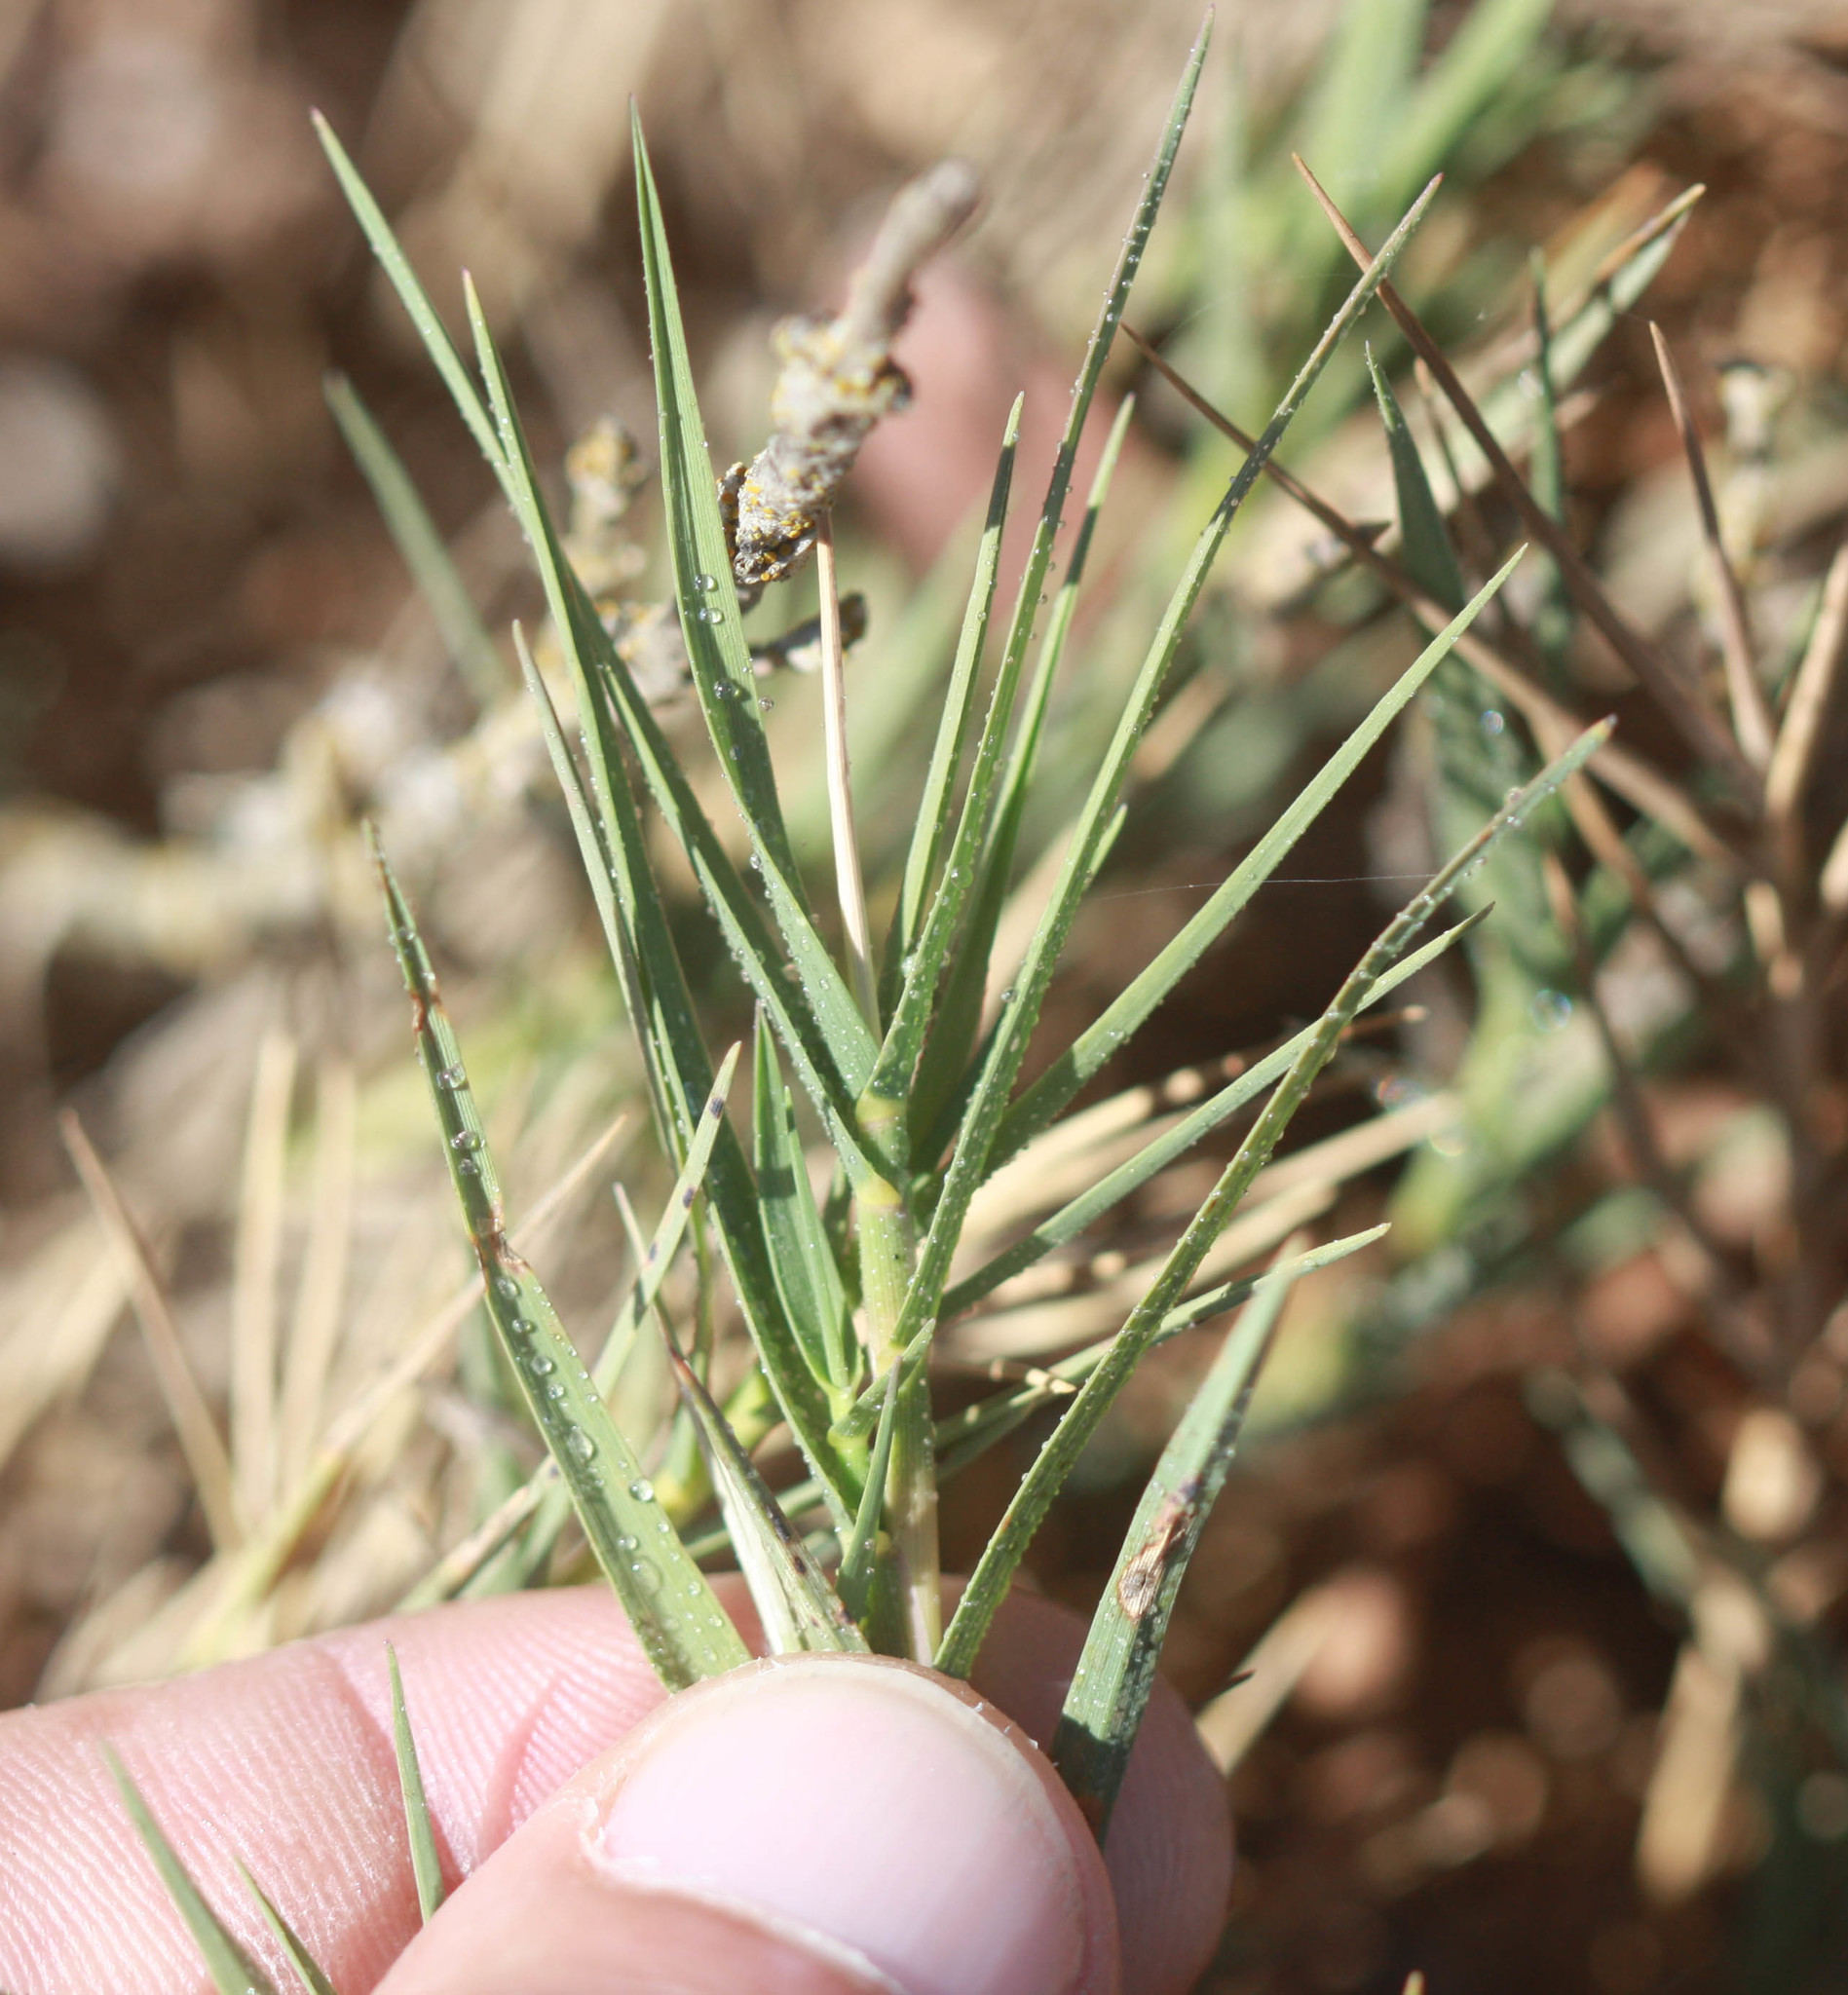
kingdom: Plantae
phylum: Tracheophyta
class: Liliopsida
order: Poales
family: Poaceae
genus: Distichlis
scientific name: Distichlis spicata
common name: Saltgrass
